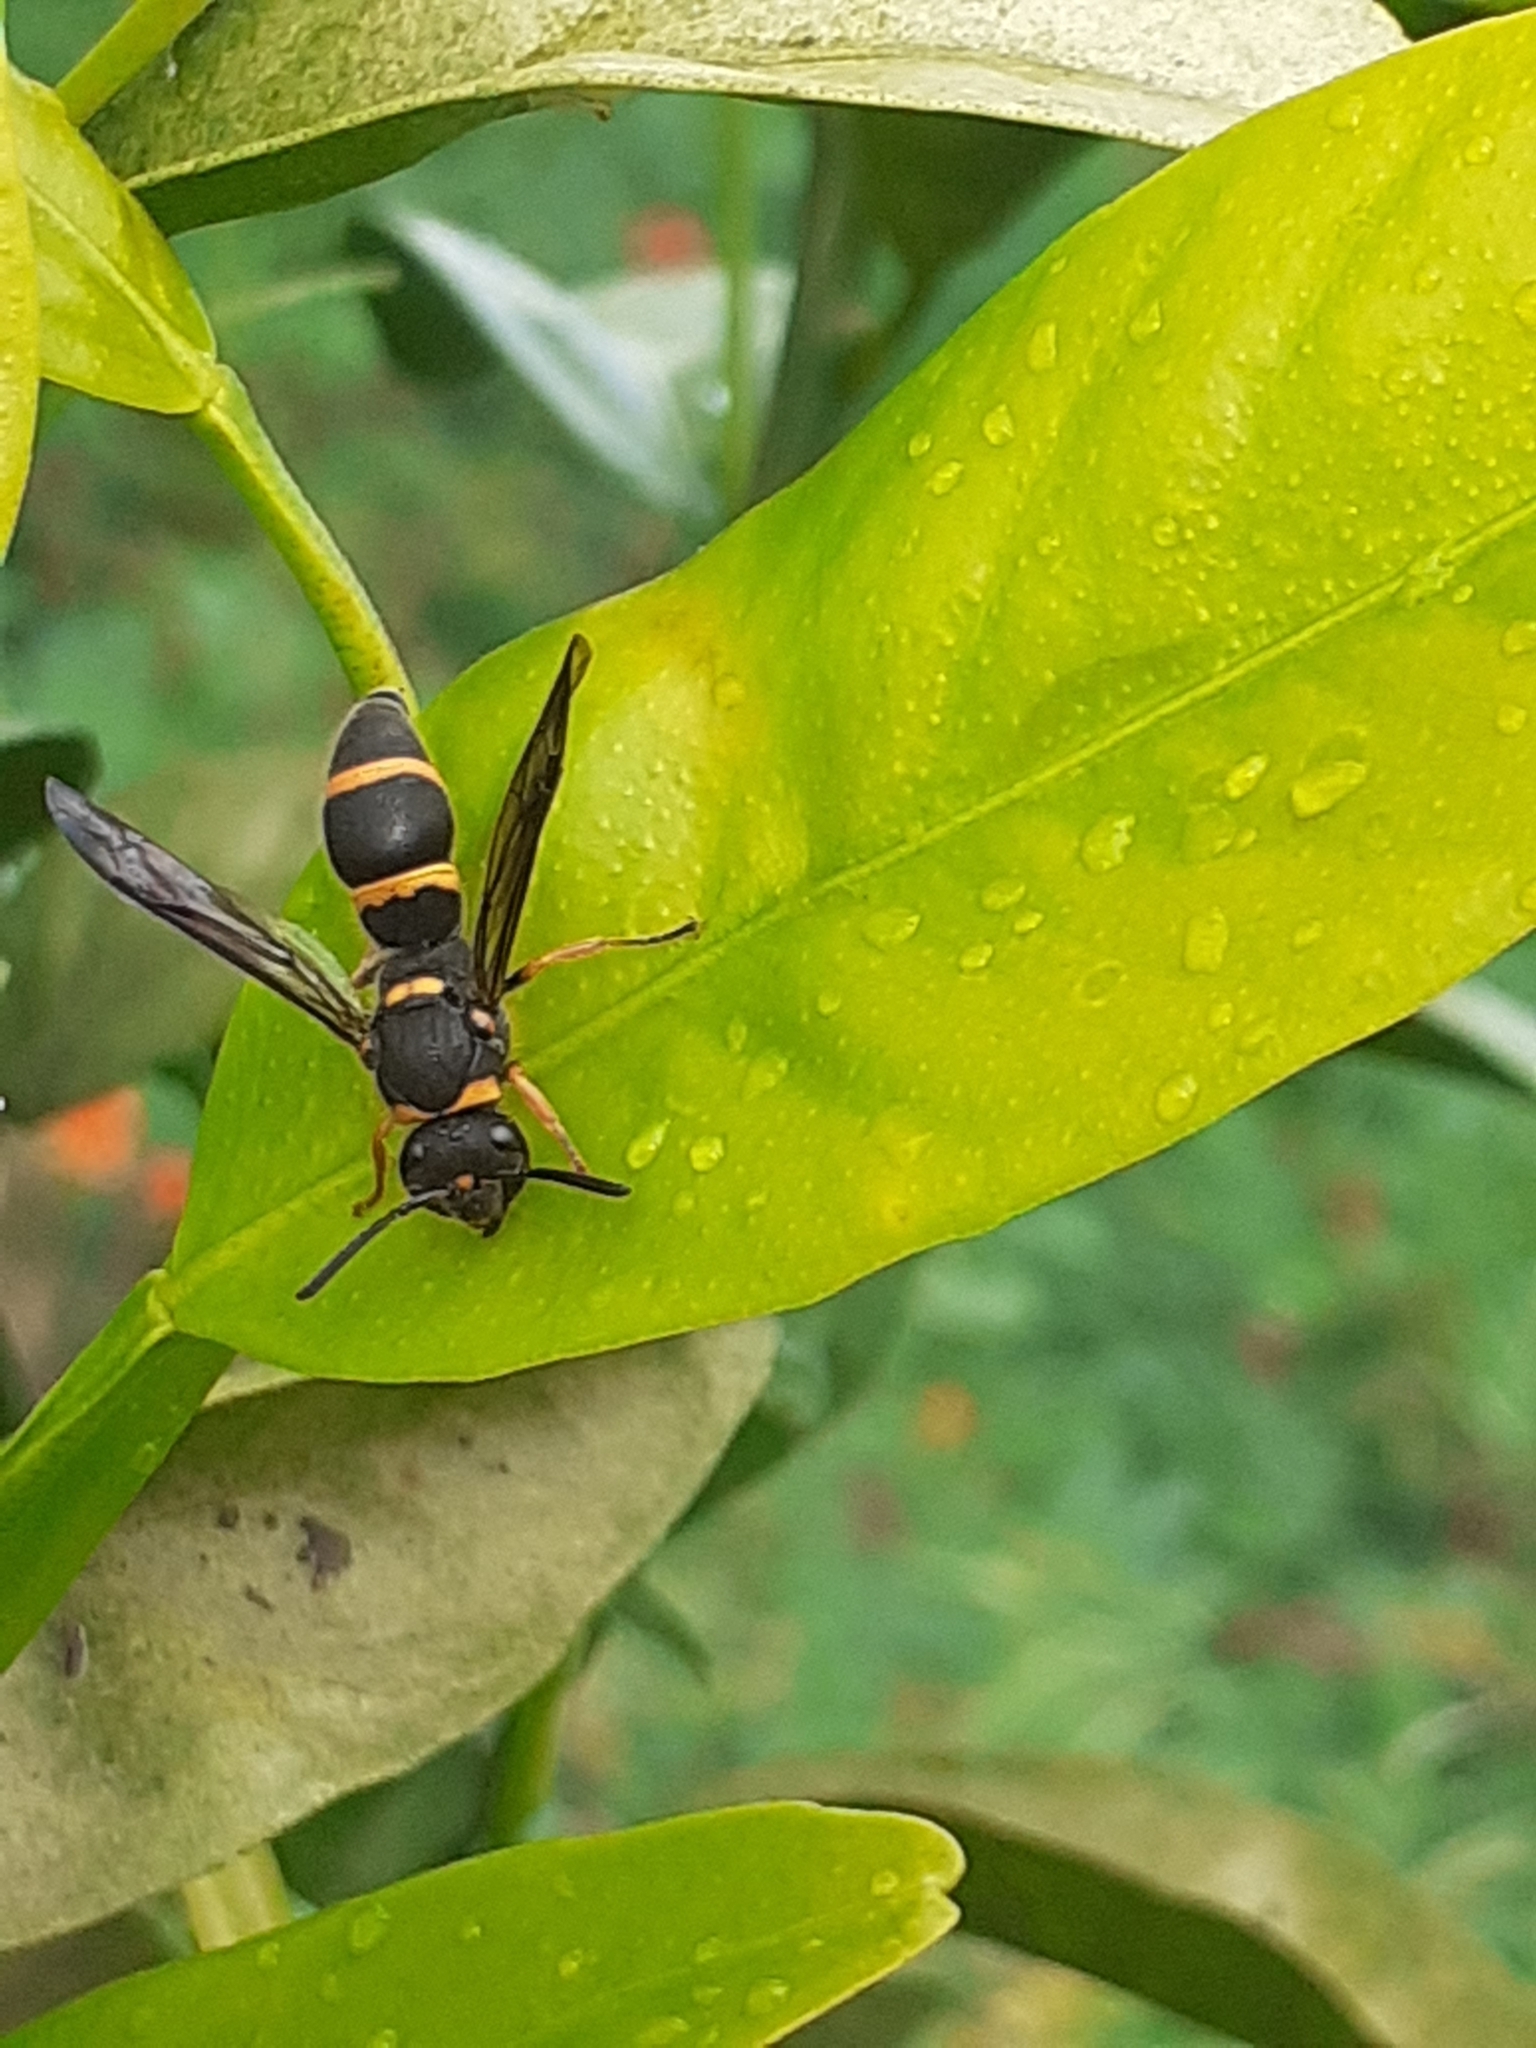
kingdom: Animalia
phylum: Arthropoda
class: Insecta
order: Hymenoptera
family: Vespidae
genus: Ancistrocerus
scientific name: Ancistrocerus fortunatus
